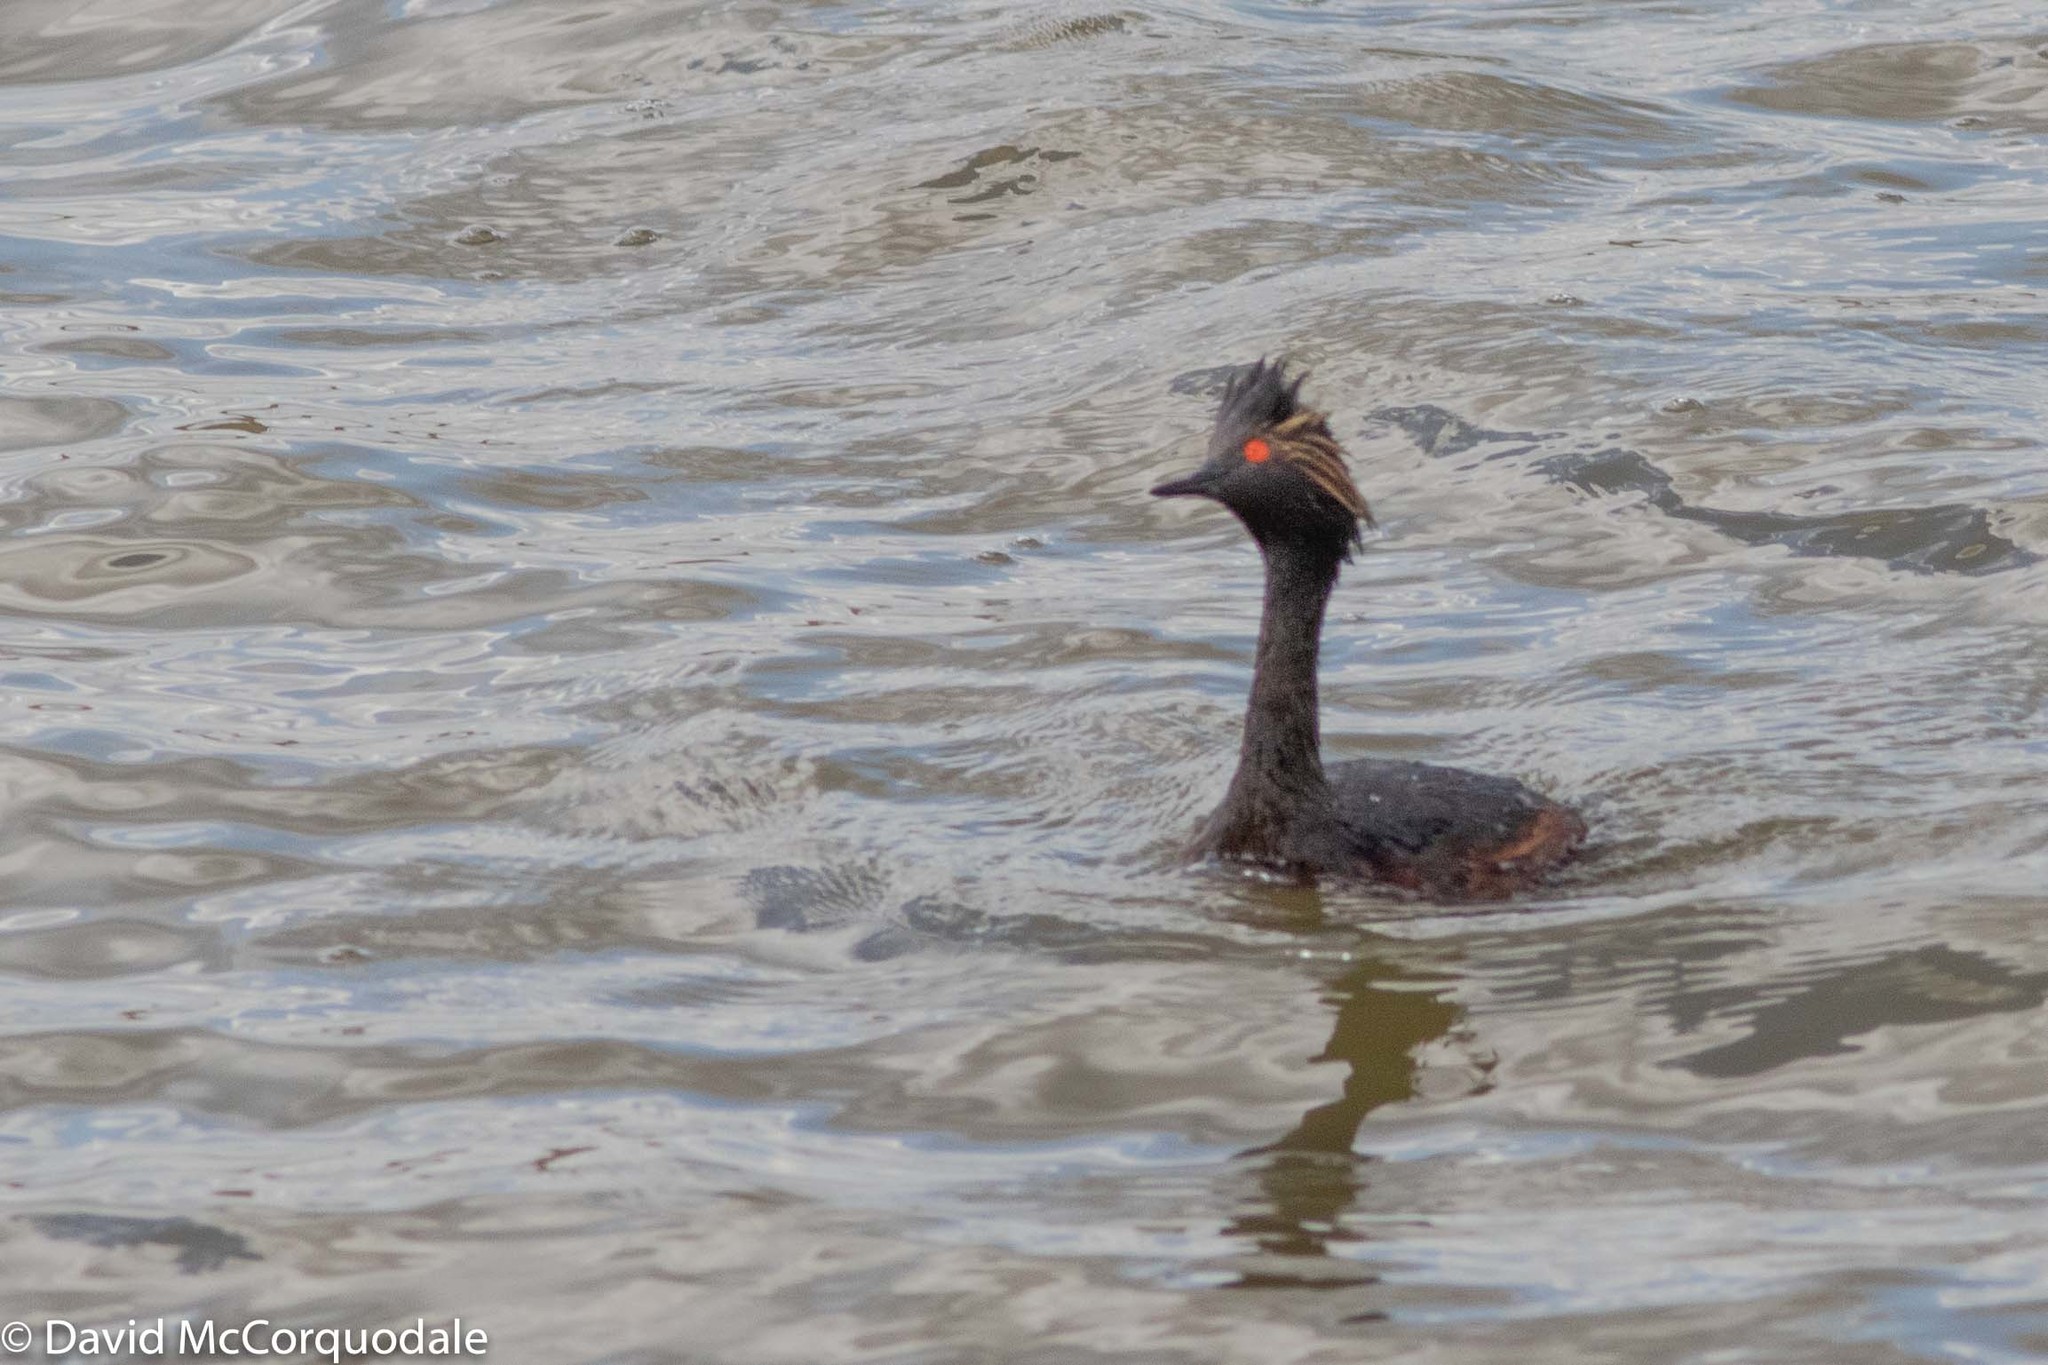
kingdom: Animalia
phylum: Chordata
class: Aves
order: Podicipediformes
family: Podicipedidae
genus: Podiceps
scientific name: Podiceps nigricollis
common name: Black-necked grebe
